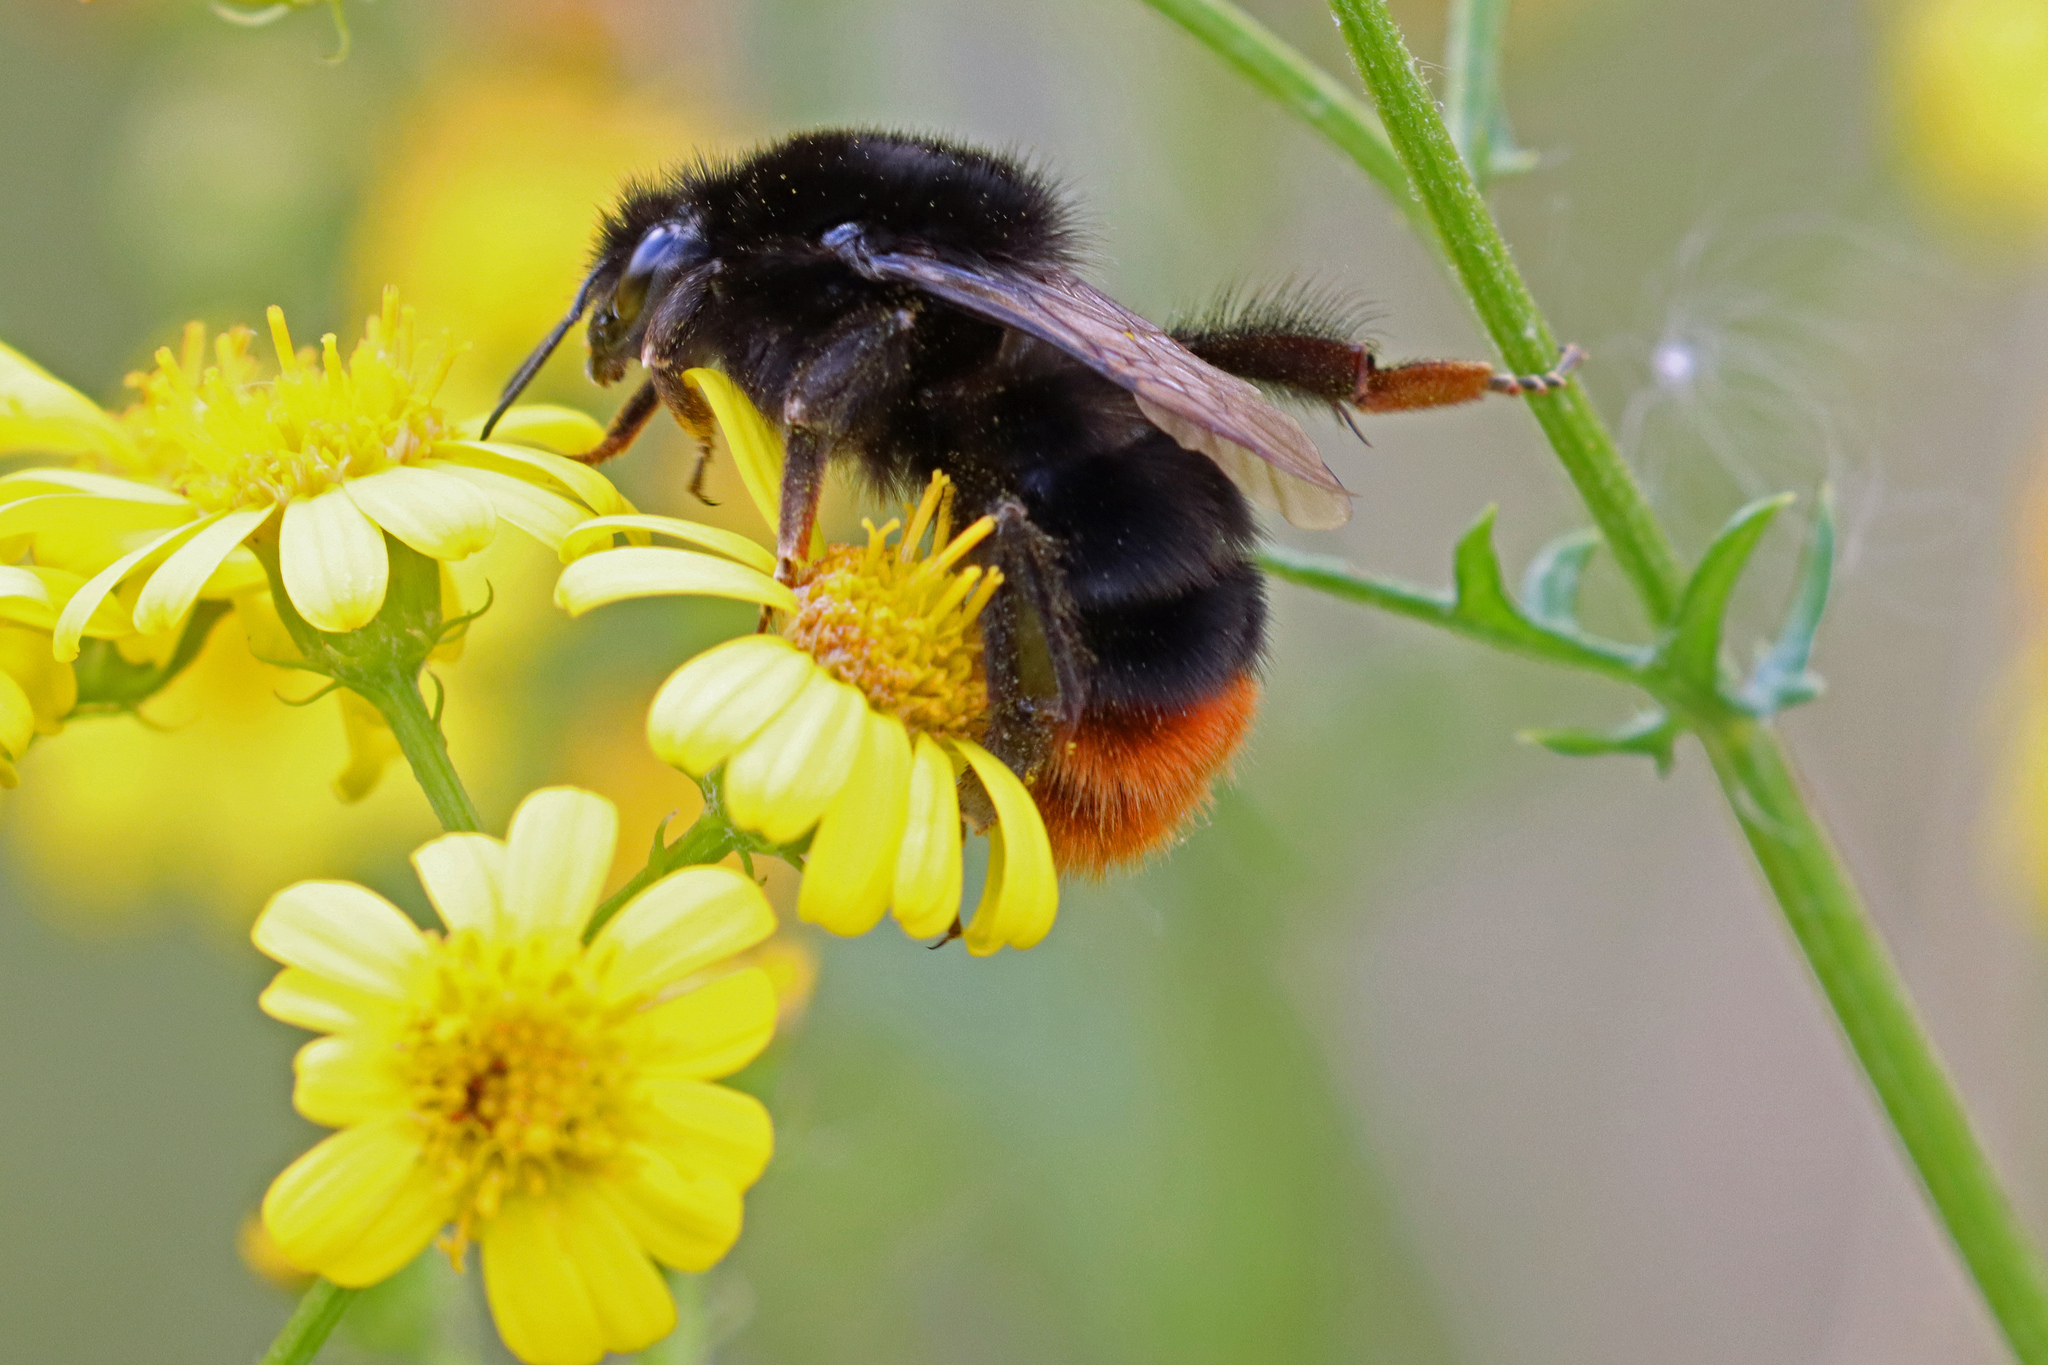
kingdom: Animalia
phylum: Arthropoda
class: Insecta
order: Hymenoptera
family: Apidae
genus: Bombus
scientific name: Bombus lapidarius
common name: Large red-tailed humble-bee
